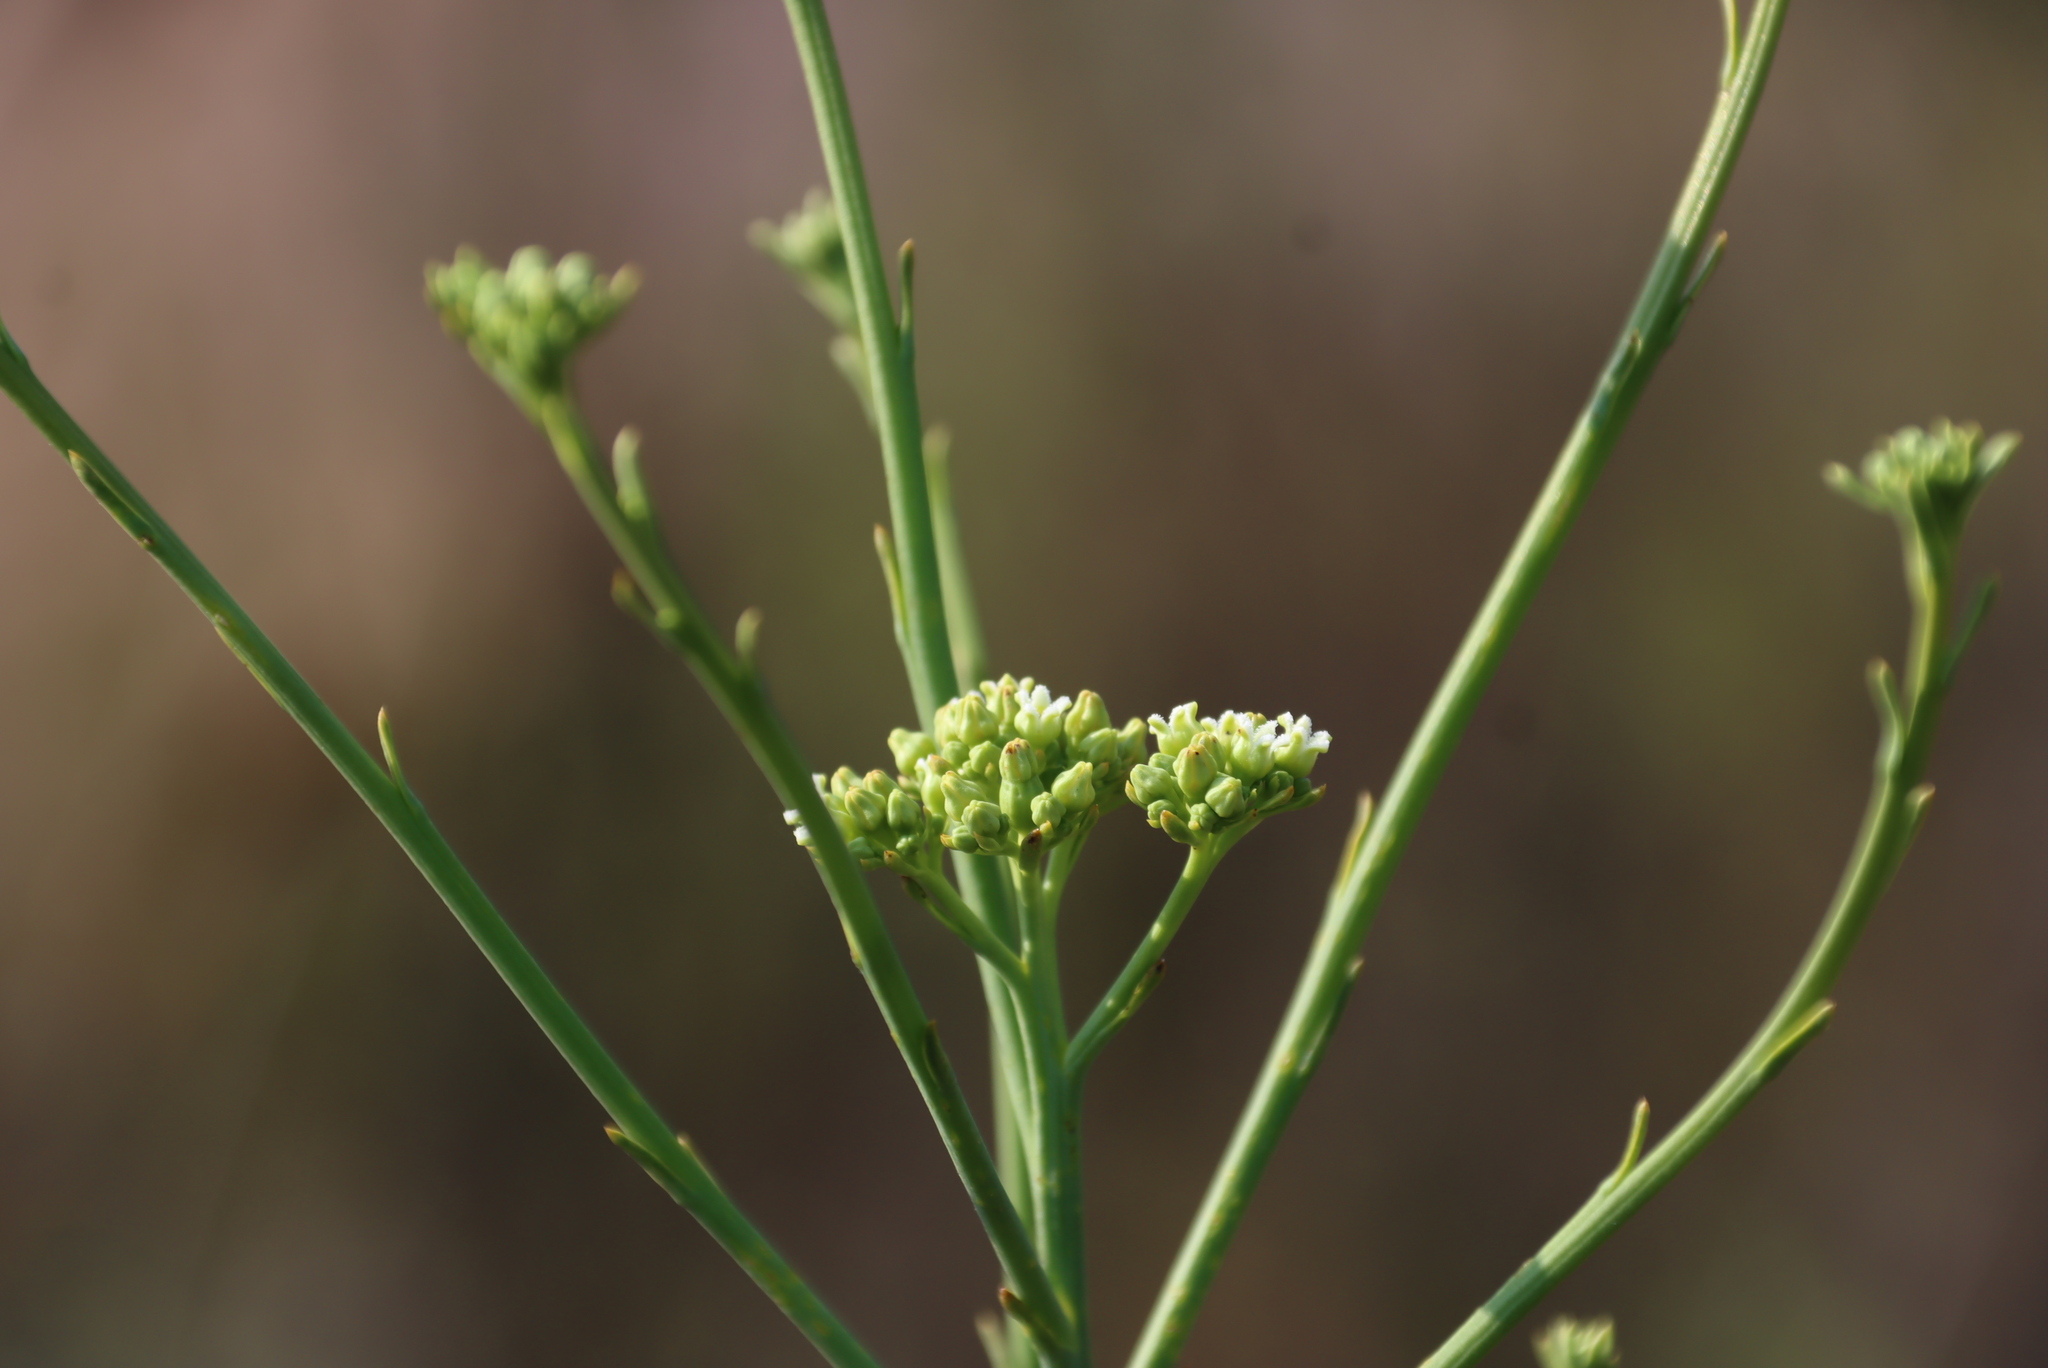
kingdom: Plantae
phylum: Tracheophyta
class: Magnoliopsida
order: Santalales
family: Thesiaceae
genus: Thesium
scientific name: Thesium occidentale
